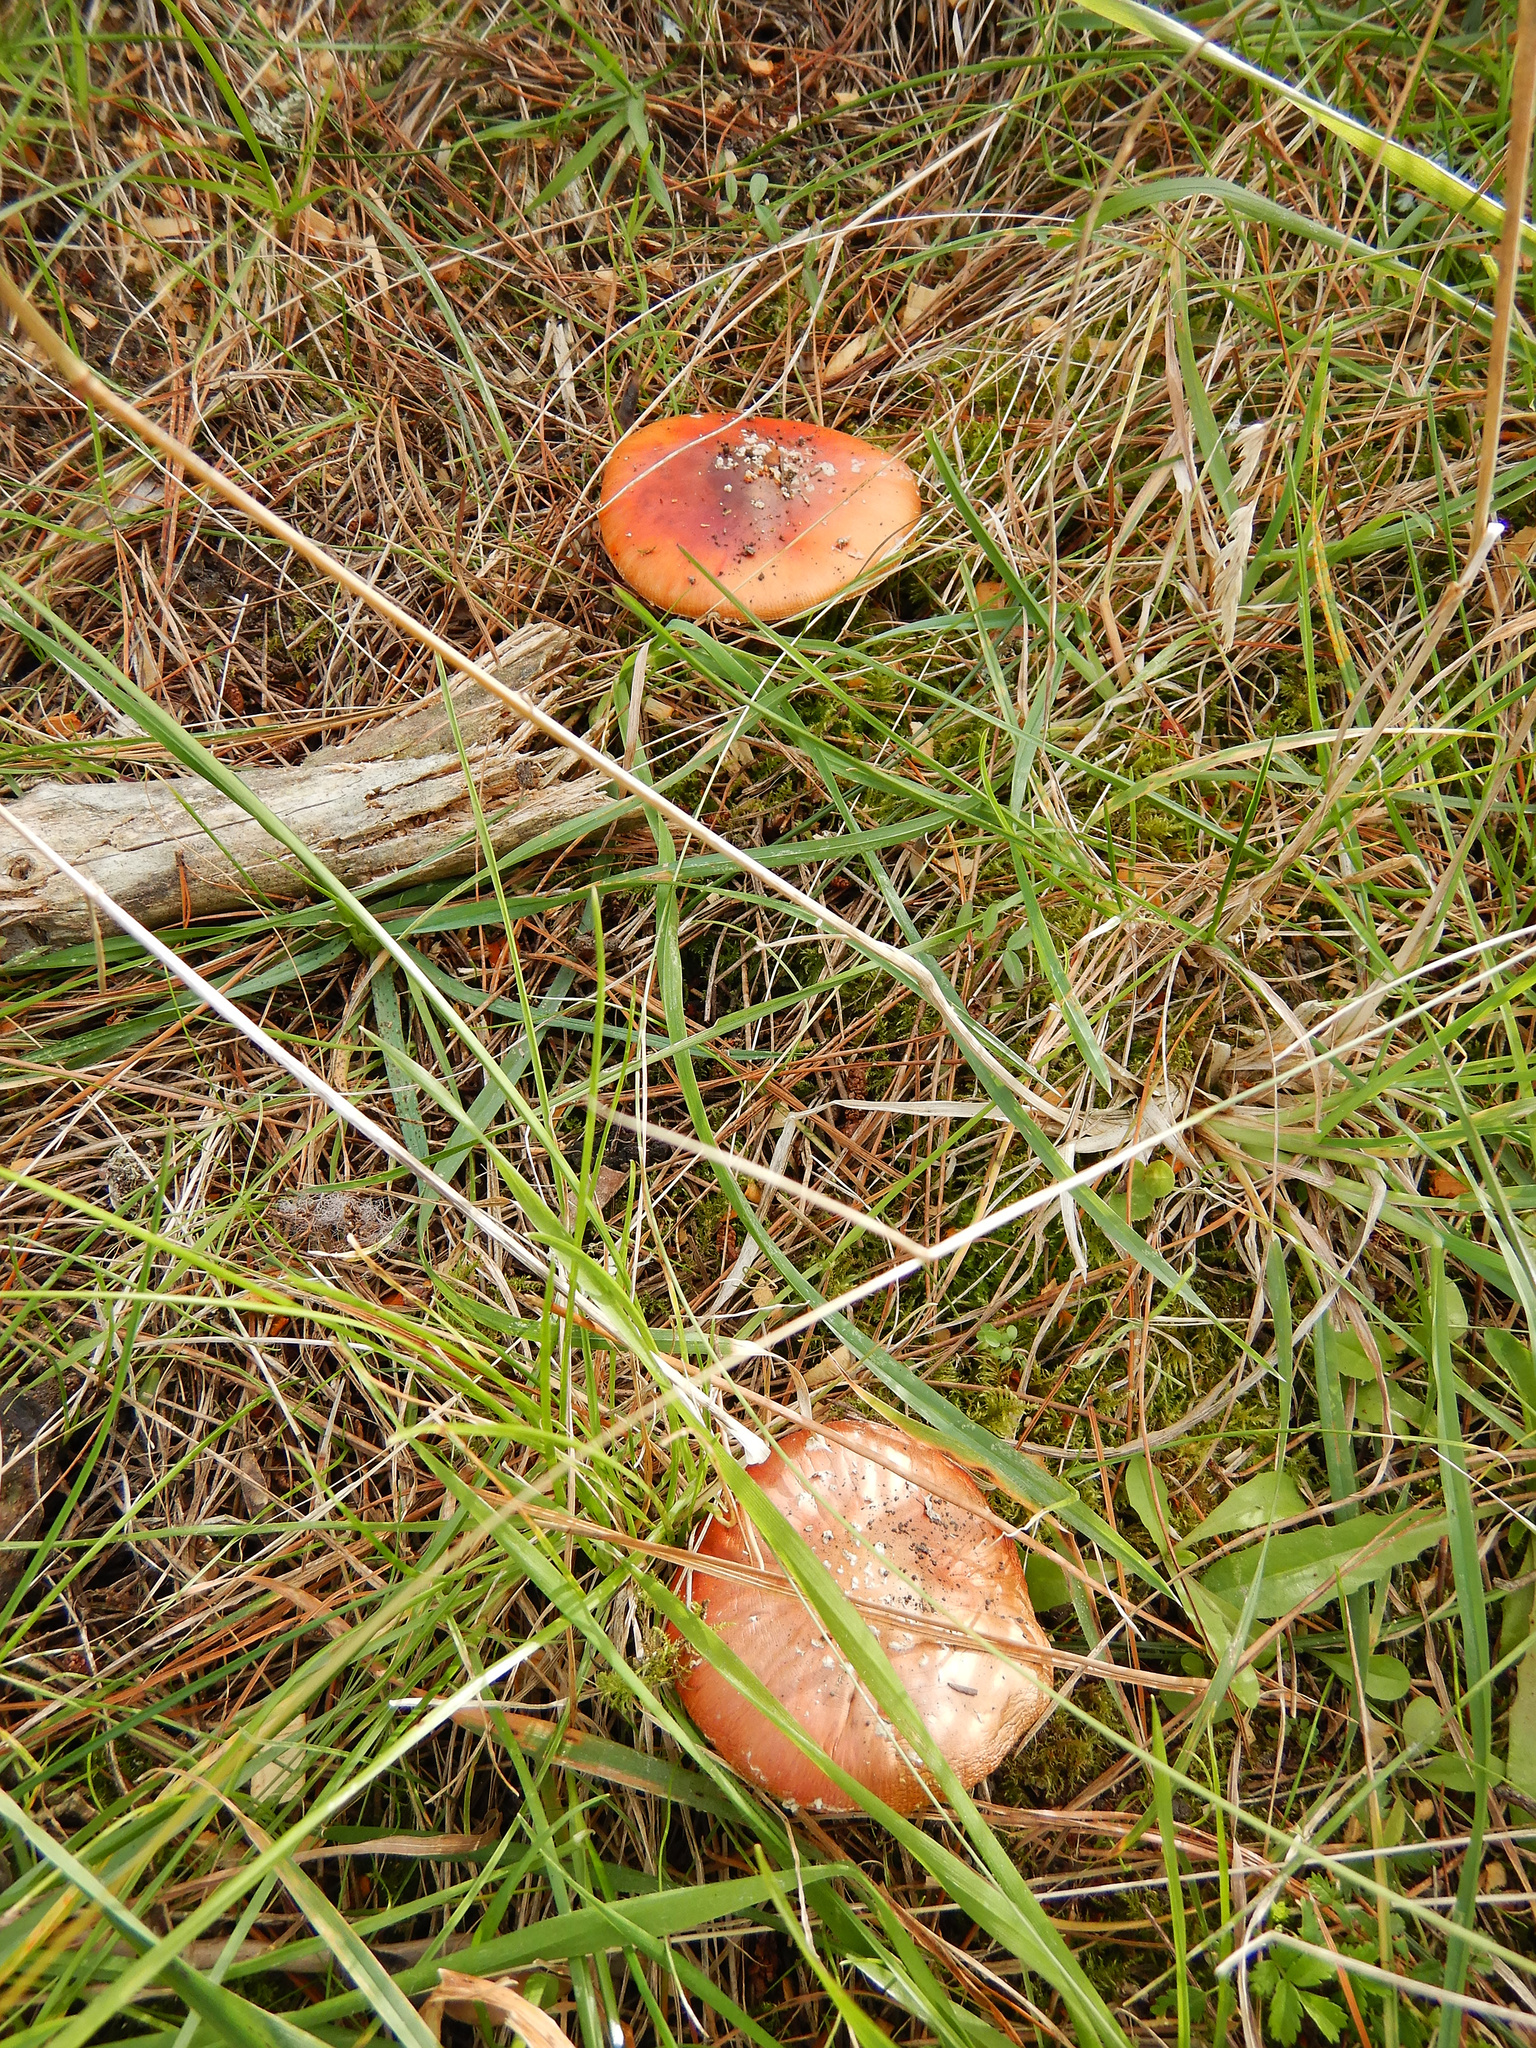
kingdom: Fungi
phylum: Basidiomycota
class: Agaricomycetes
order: Agaricales
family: Amanitaceae
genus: Amanita
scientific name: Amanita muscaria
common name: Fly agaric
